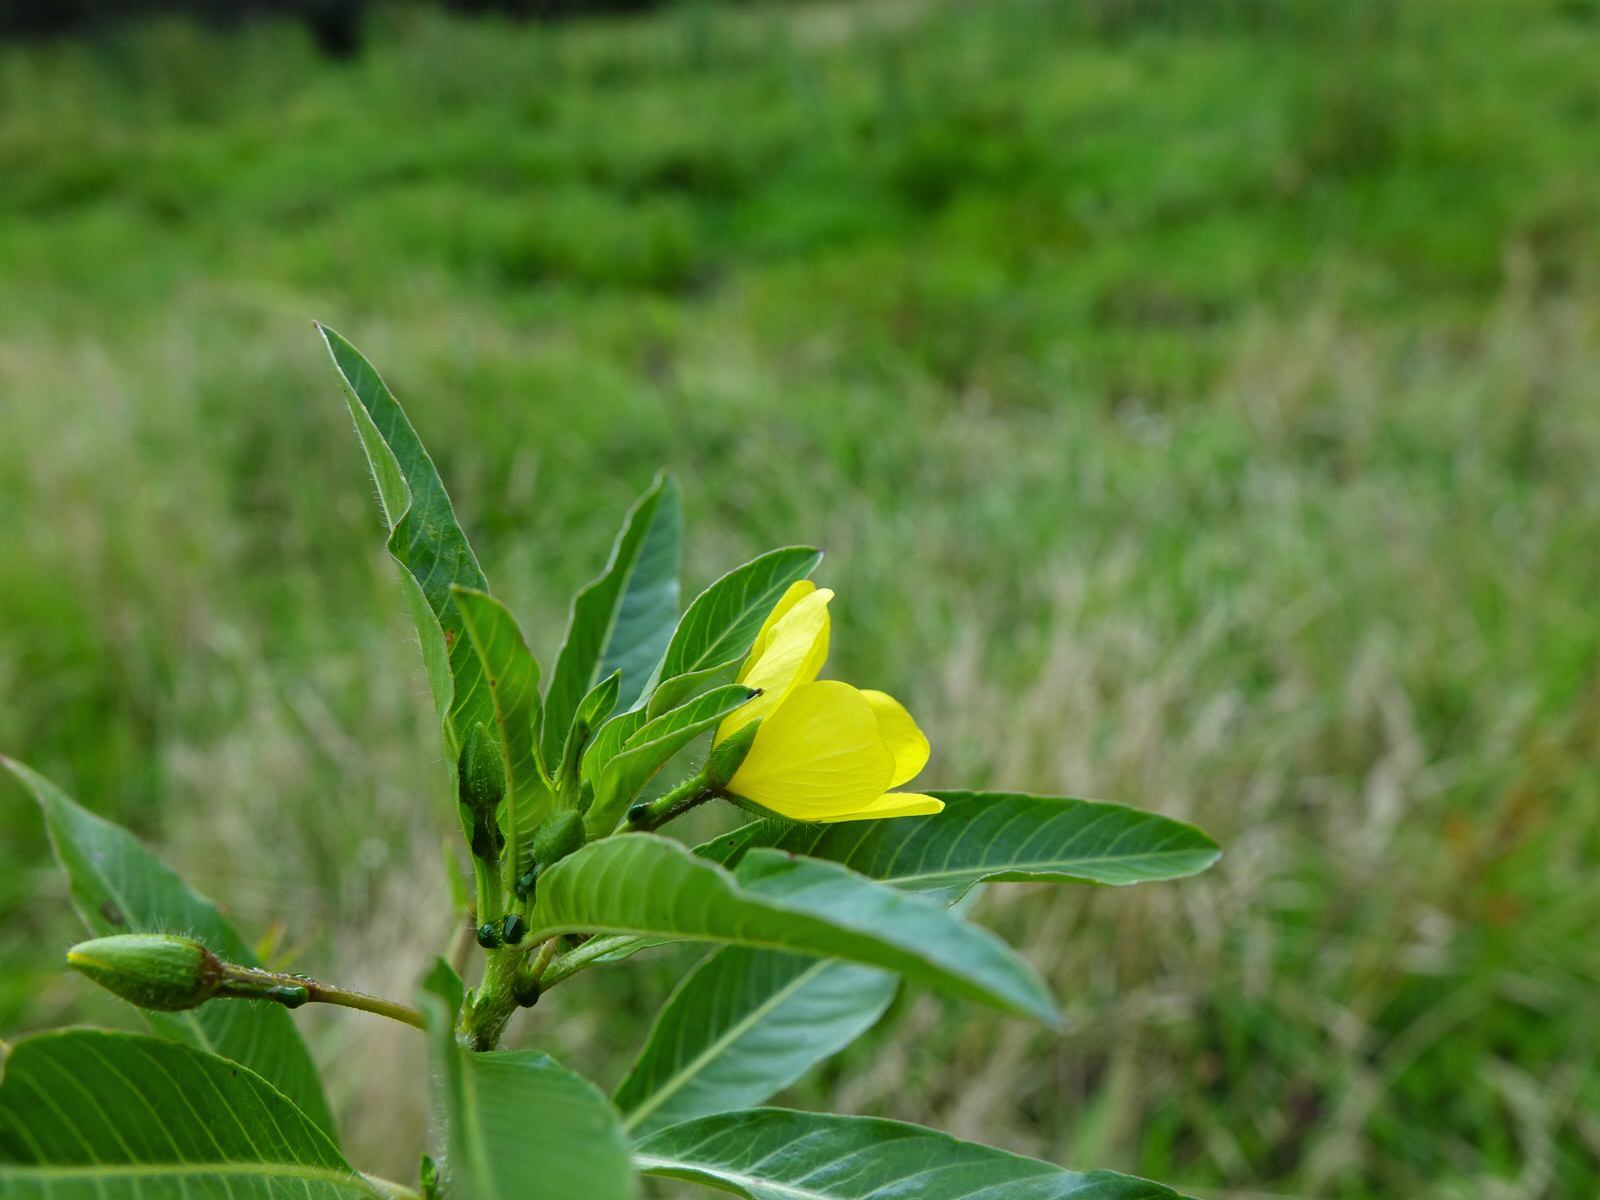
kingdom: Plantae
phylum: Tracheophyta
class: Magnoliopsida
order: Myrtales
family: Onagraceae
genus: Ludwigia
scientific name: Ludwigia peploides
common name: Floating primrose-willow
